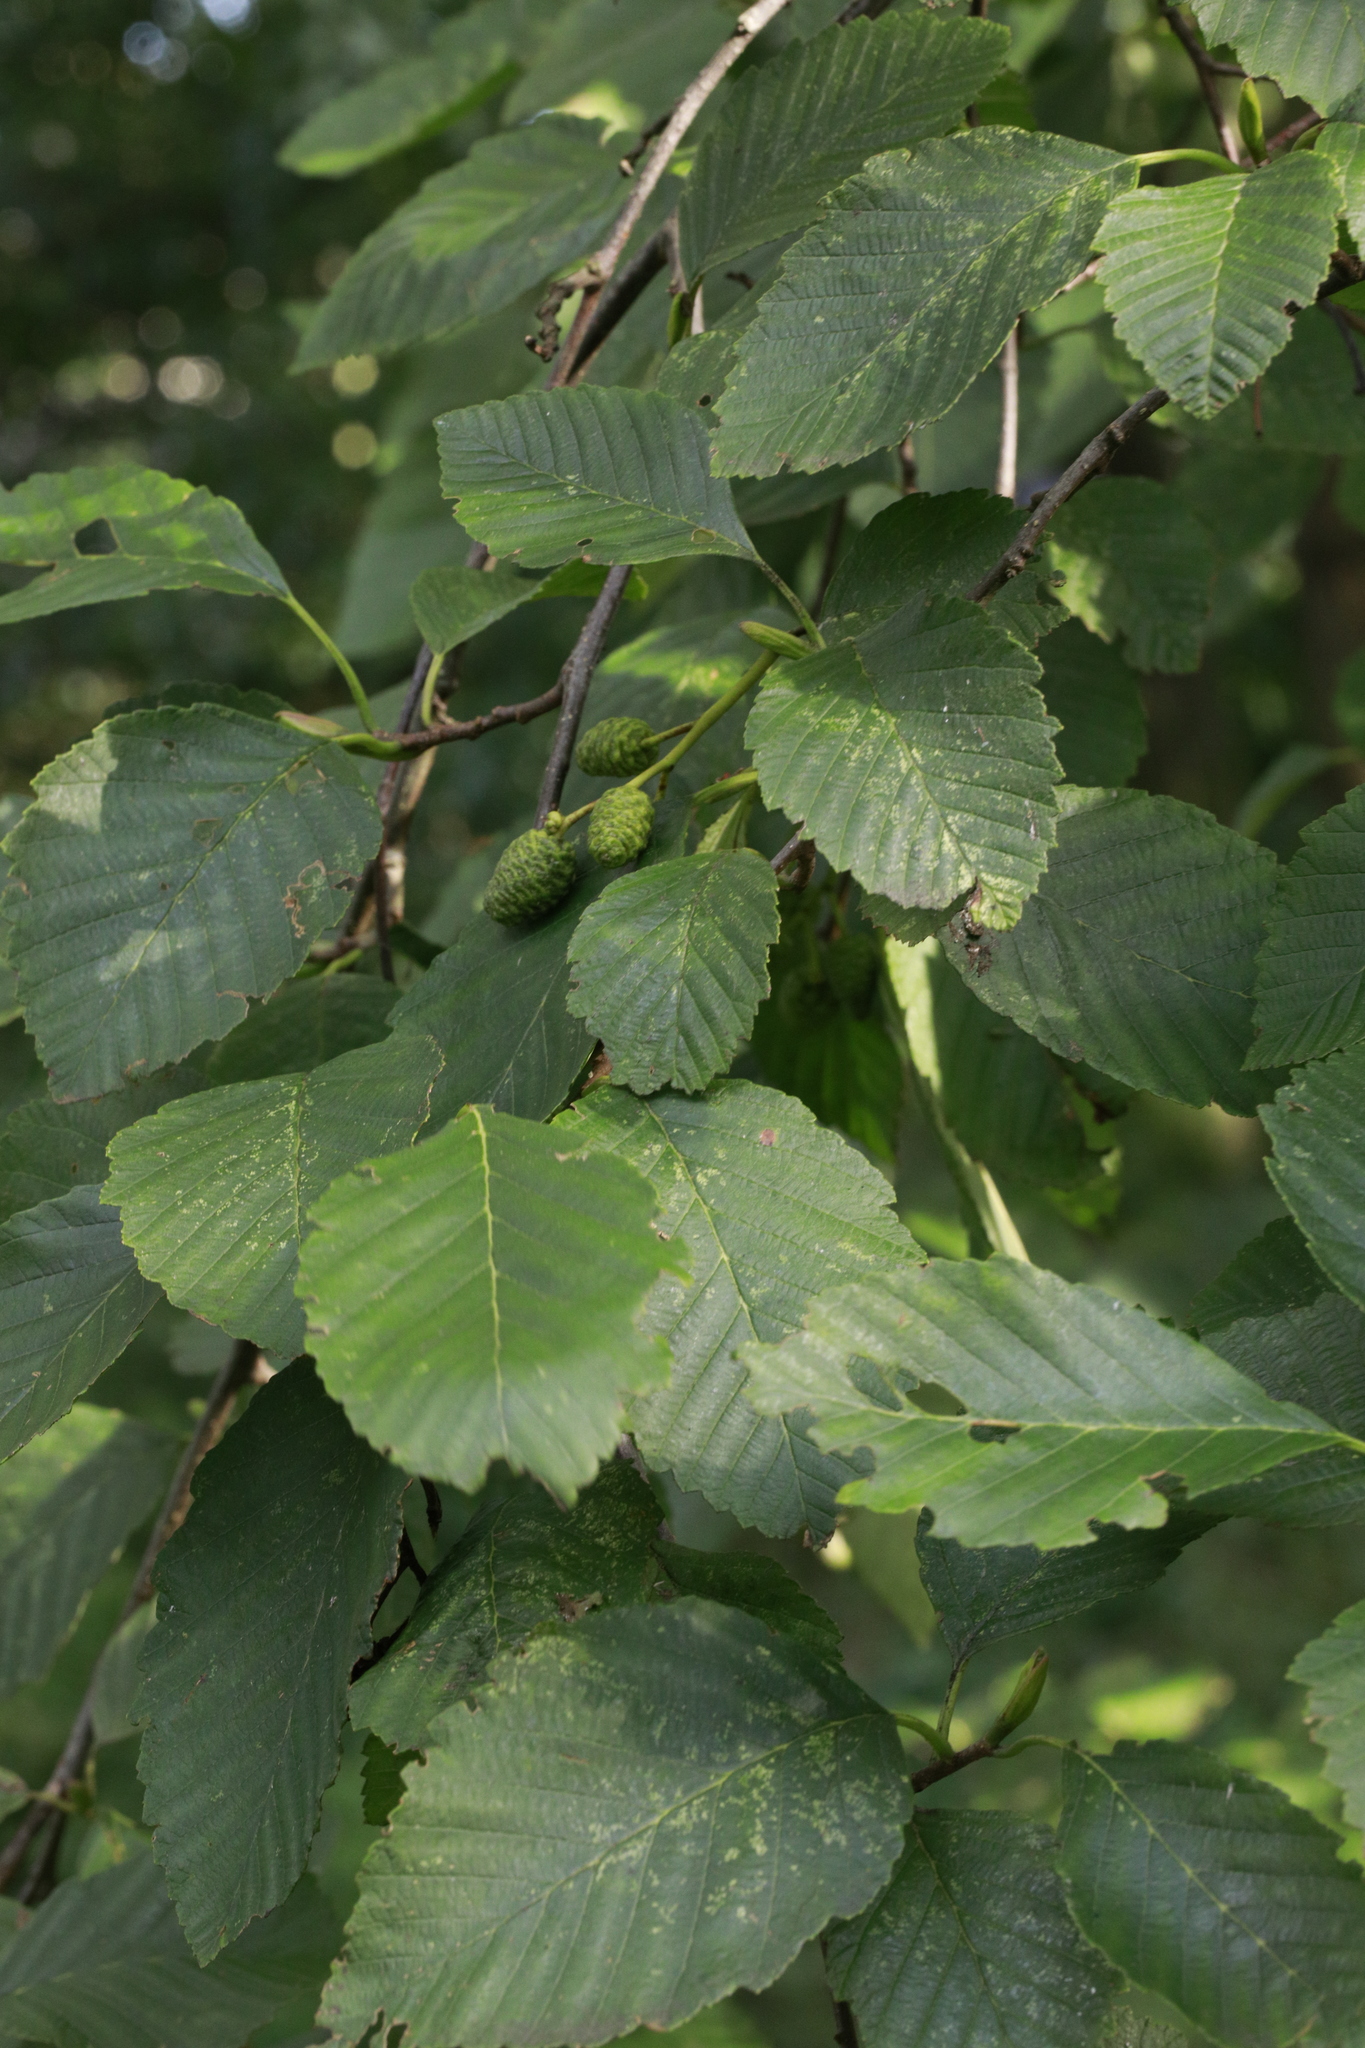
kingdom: Plantae
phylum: Tracheophyta
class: Magnoliopsida
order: Fagales
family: Betulaceae
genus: Alnus
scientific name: Alnus incana
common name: Grey alder
